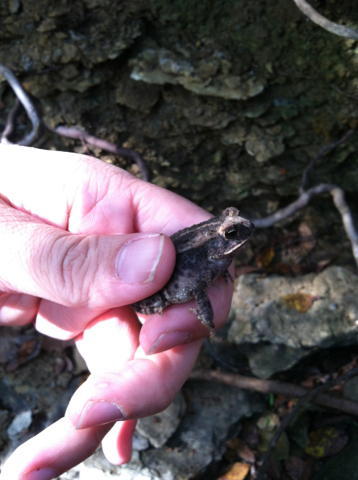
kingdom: Animalia
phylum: Chordata
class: Amphibia
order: Anura
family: Bufonidae
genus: Incilius
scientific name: Incilius nebulifer
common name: Gulf coast toad
